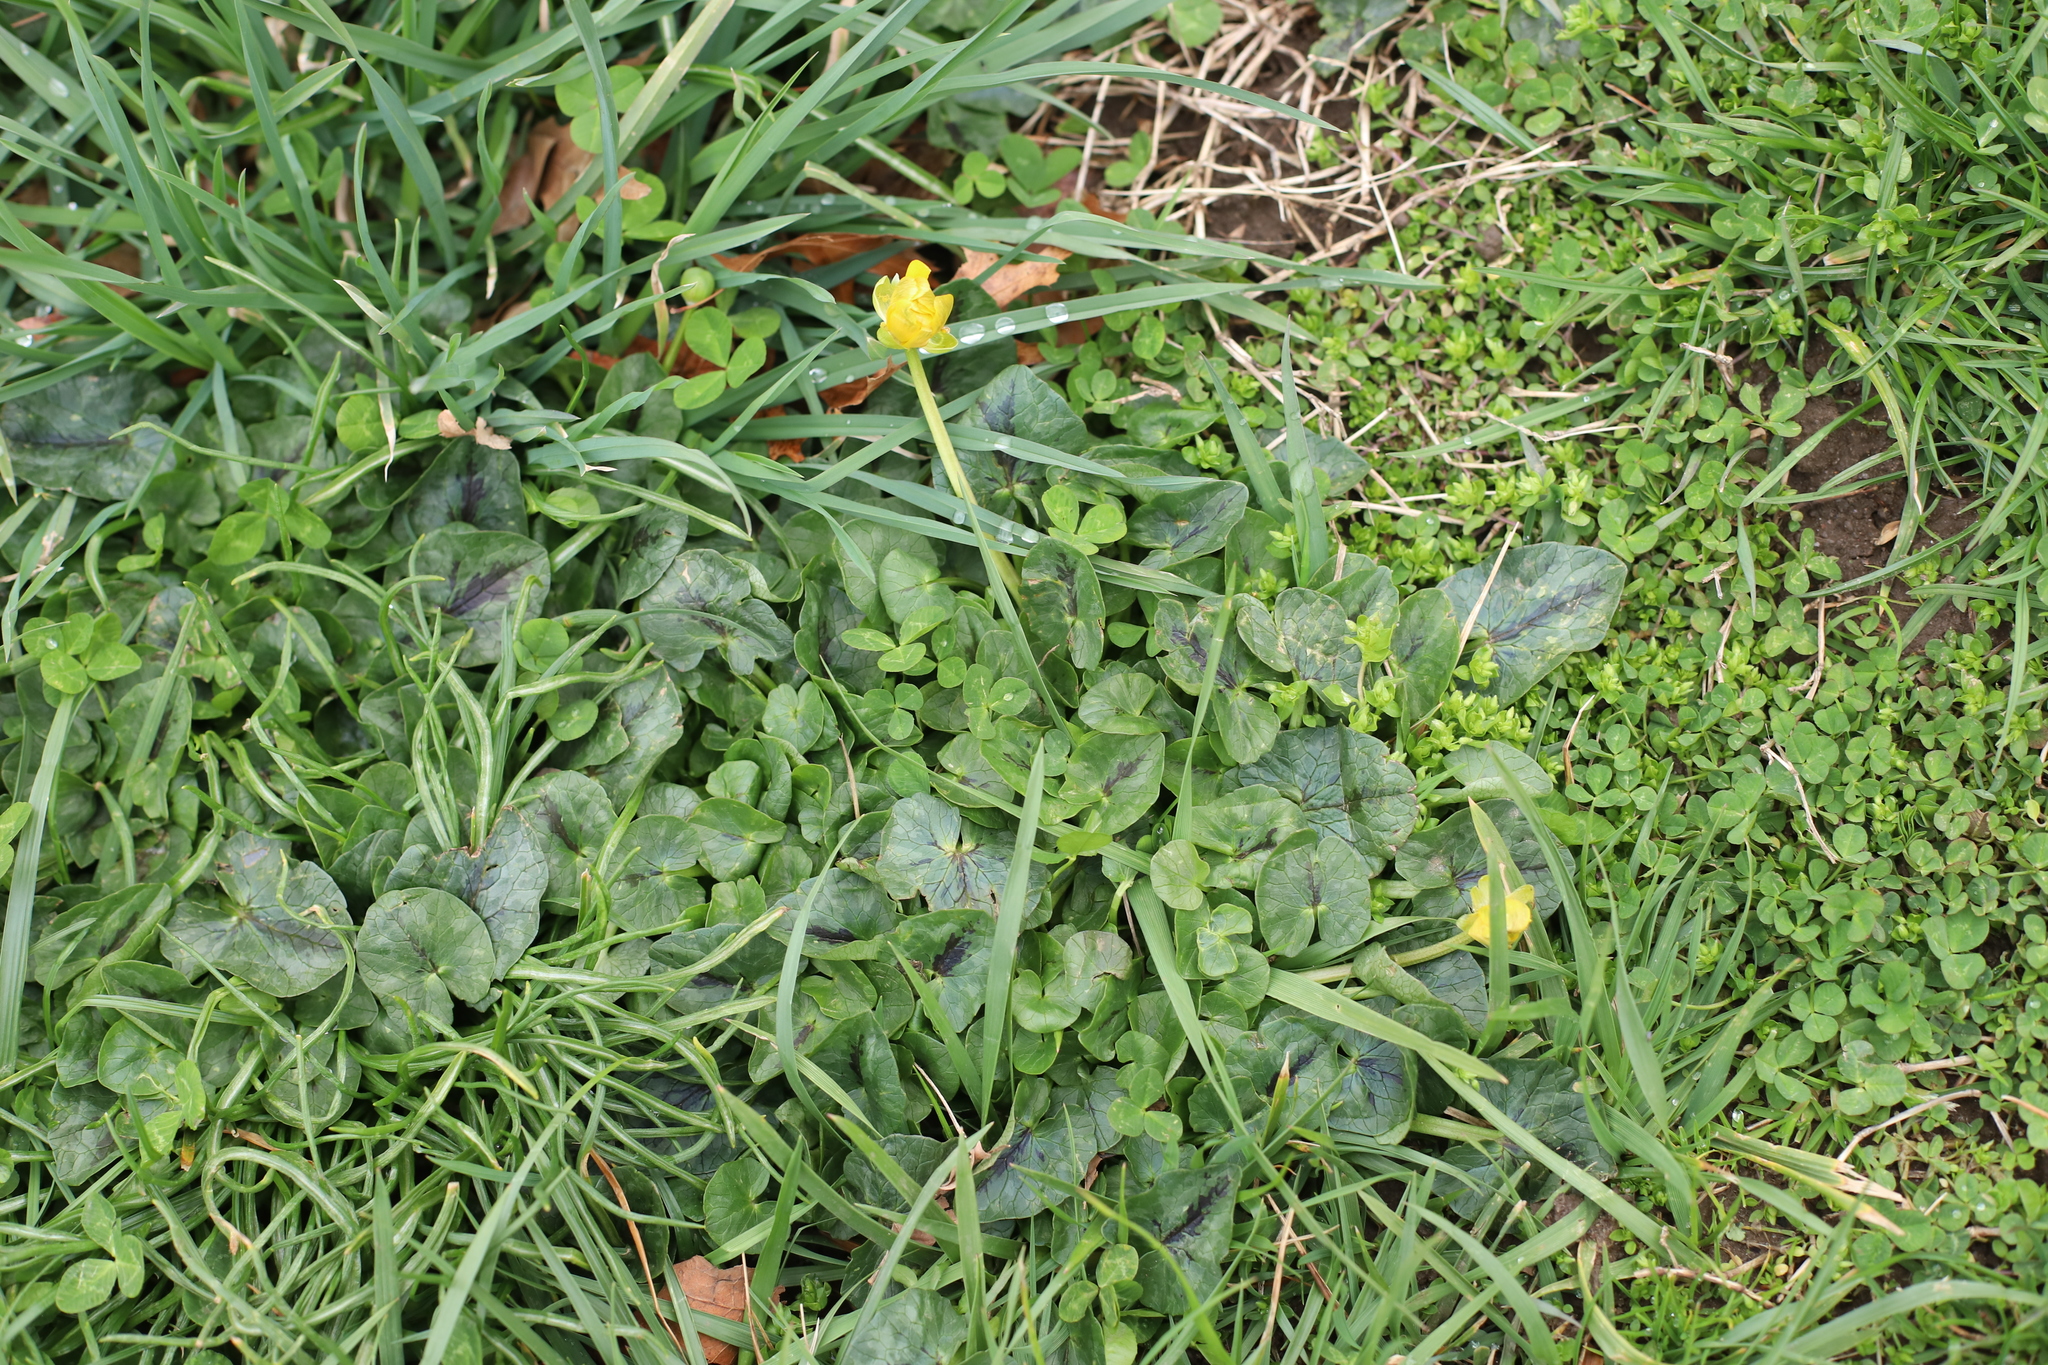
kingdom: Plantae
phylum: Tracheophyta
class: Magnoliopsida
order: Ranunculales
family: Ranunculaceae
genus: Ficaria
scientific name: Ficaria verna
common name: Lesser celandine
